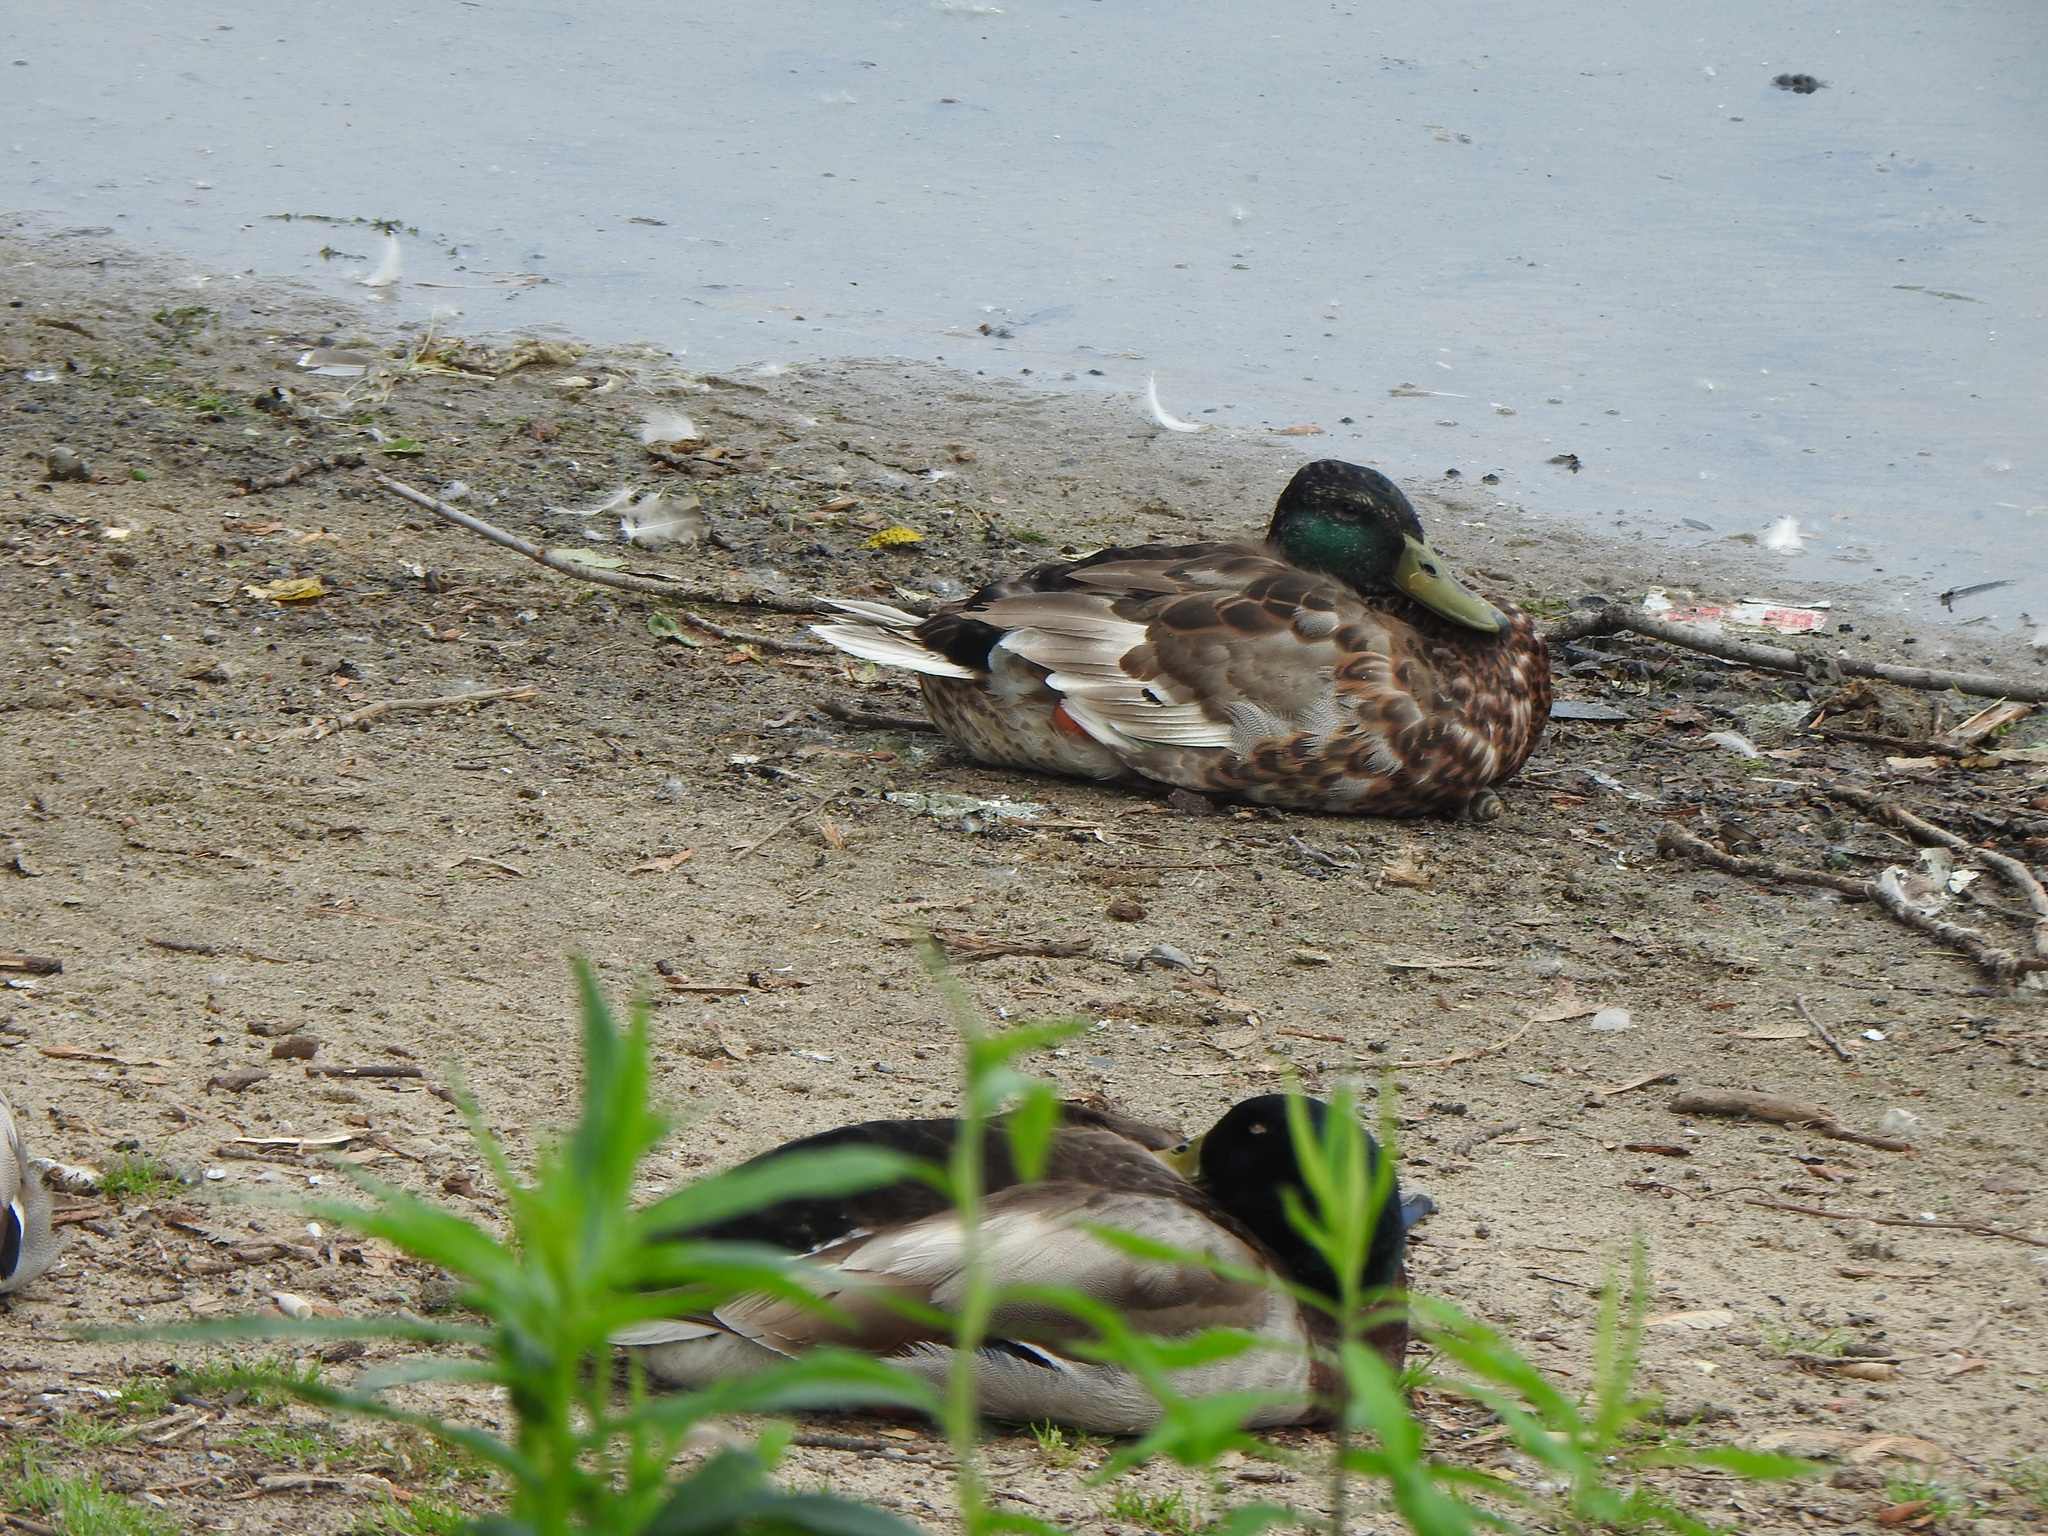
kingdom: Animalia
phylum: Chordata
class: Aves
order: Anseriformes
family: Anatidae
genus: Anas
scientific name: Anas platyrhynchos
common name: Mallard
